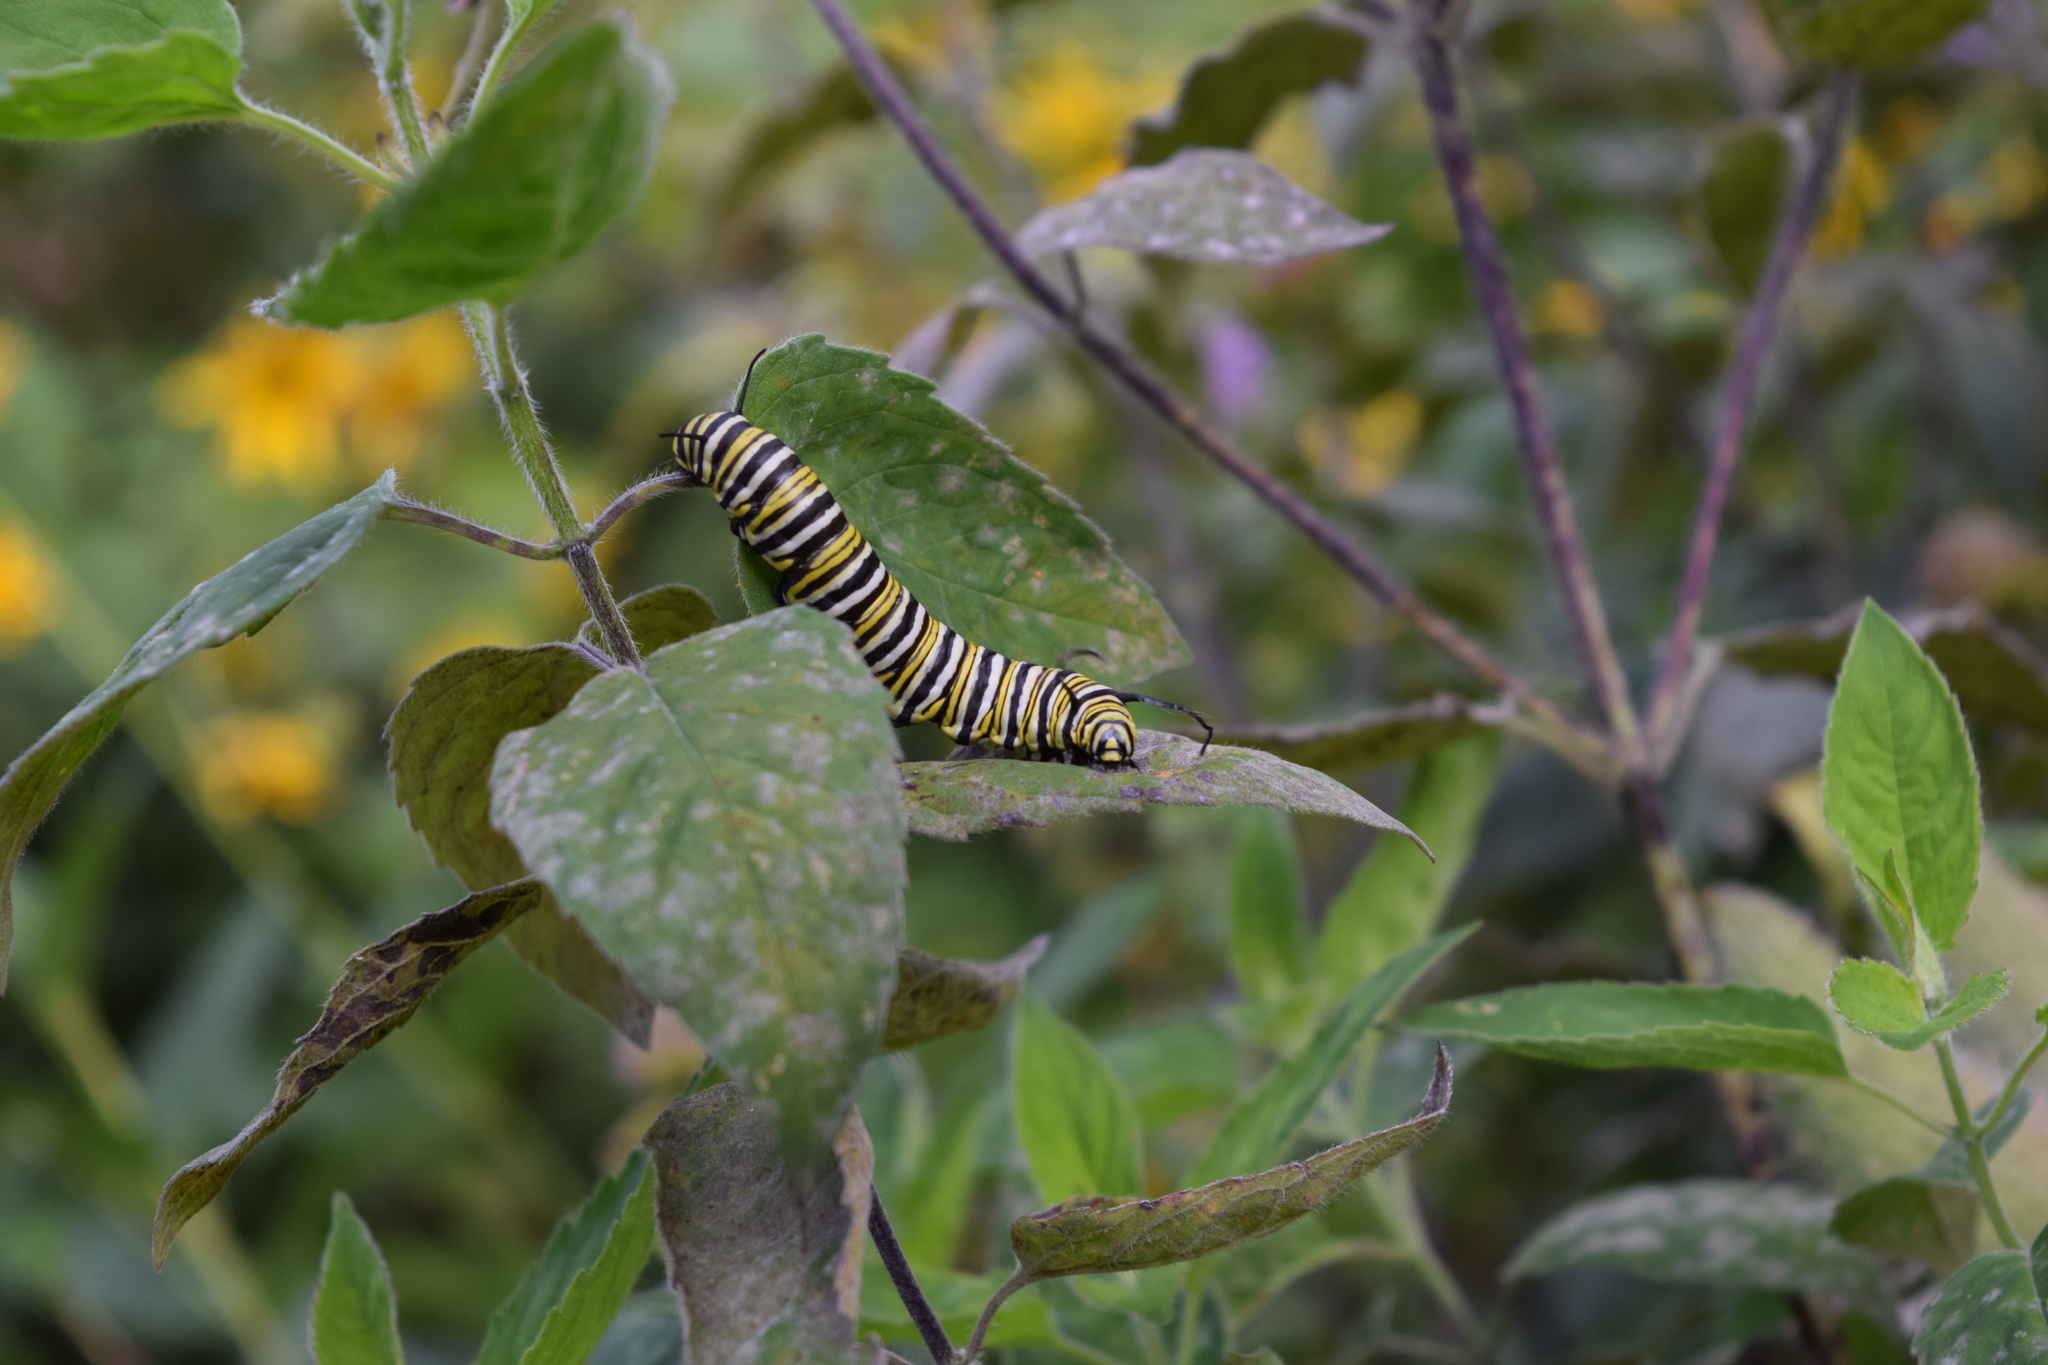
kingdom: Animalia
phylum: Arthropoda
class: Insecta
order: Lepidoptera
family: Nymphalidae
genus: Danaus
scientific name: Danaus plexippus
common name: Monarch
